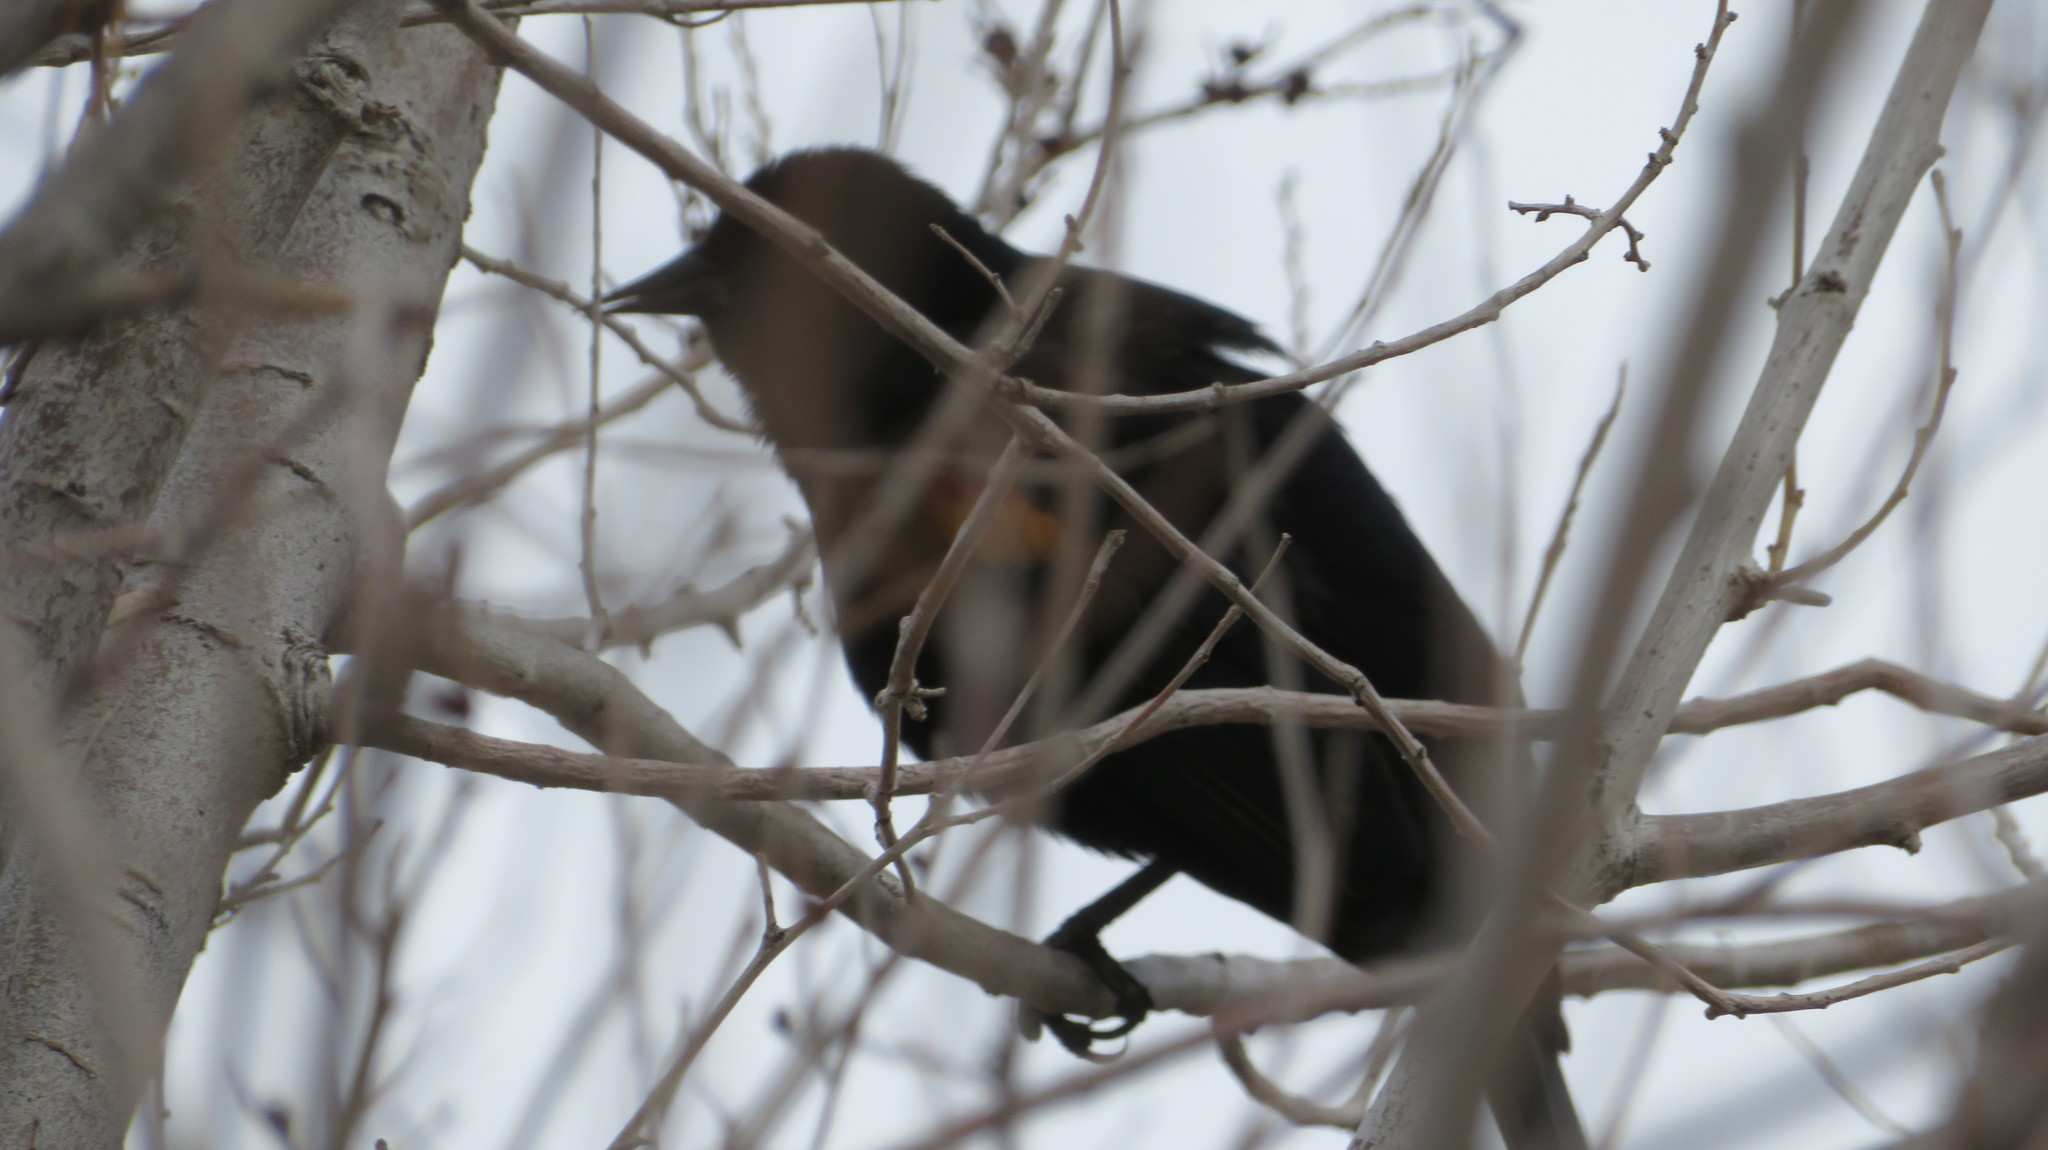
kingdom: Animalia
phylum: Chordata
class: Aves
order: Passeriformes
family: Icteridae
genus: Agelaius
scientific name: Agelaius phoeniceus
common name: Red-winged blackbird
